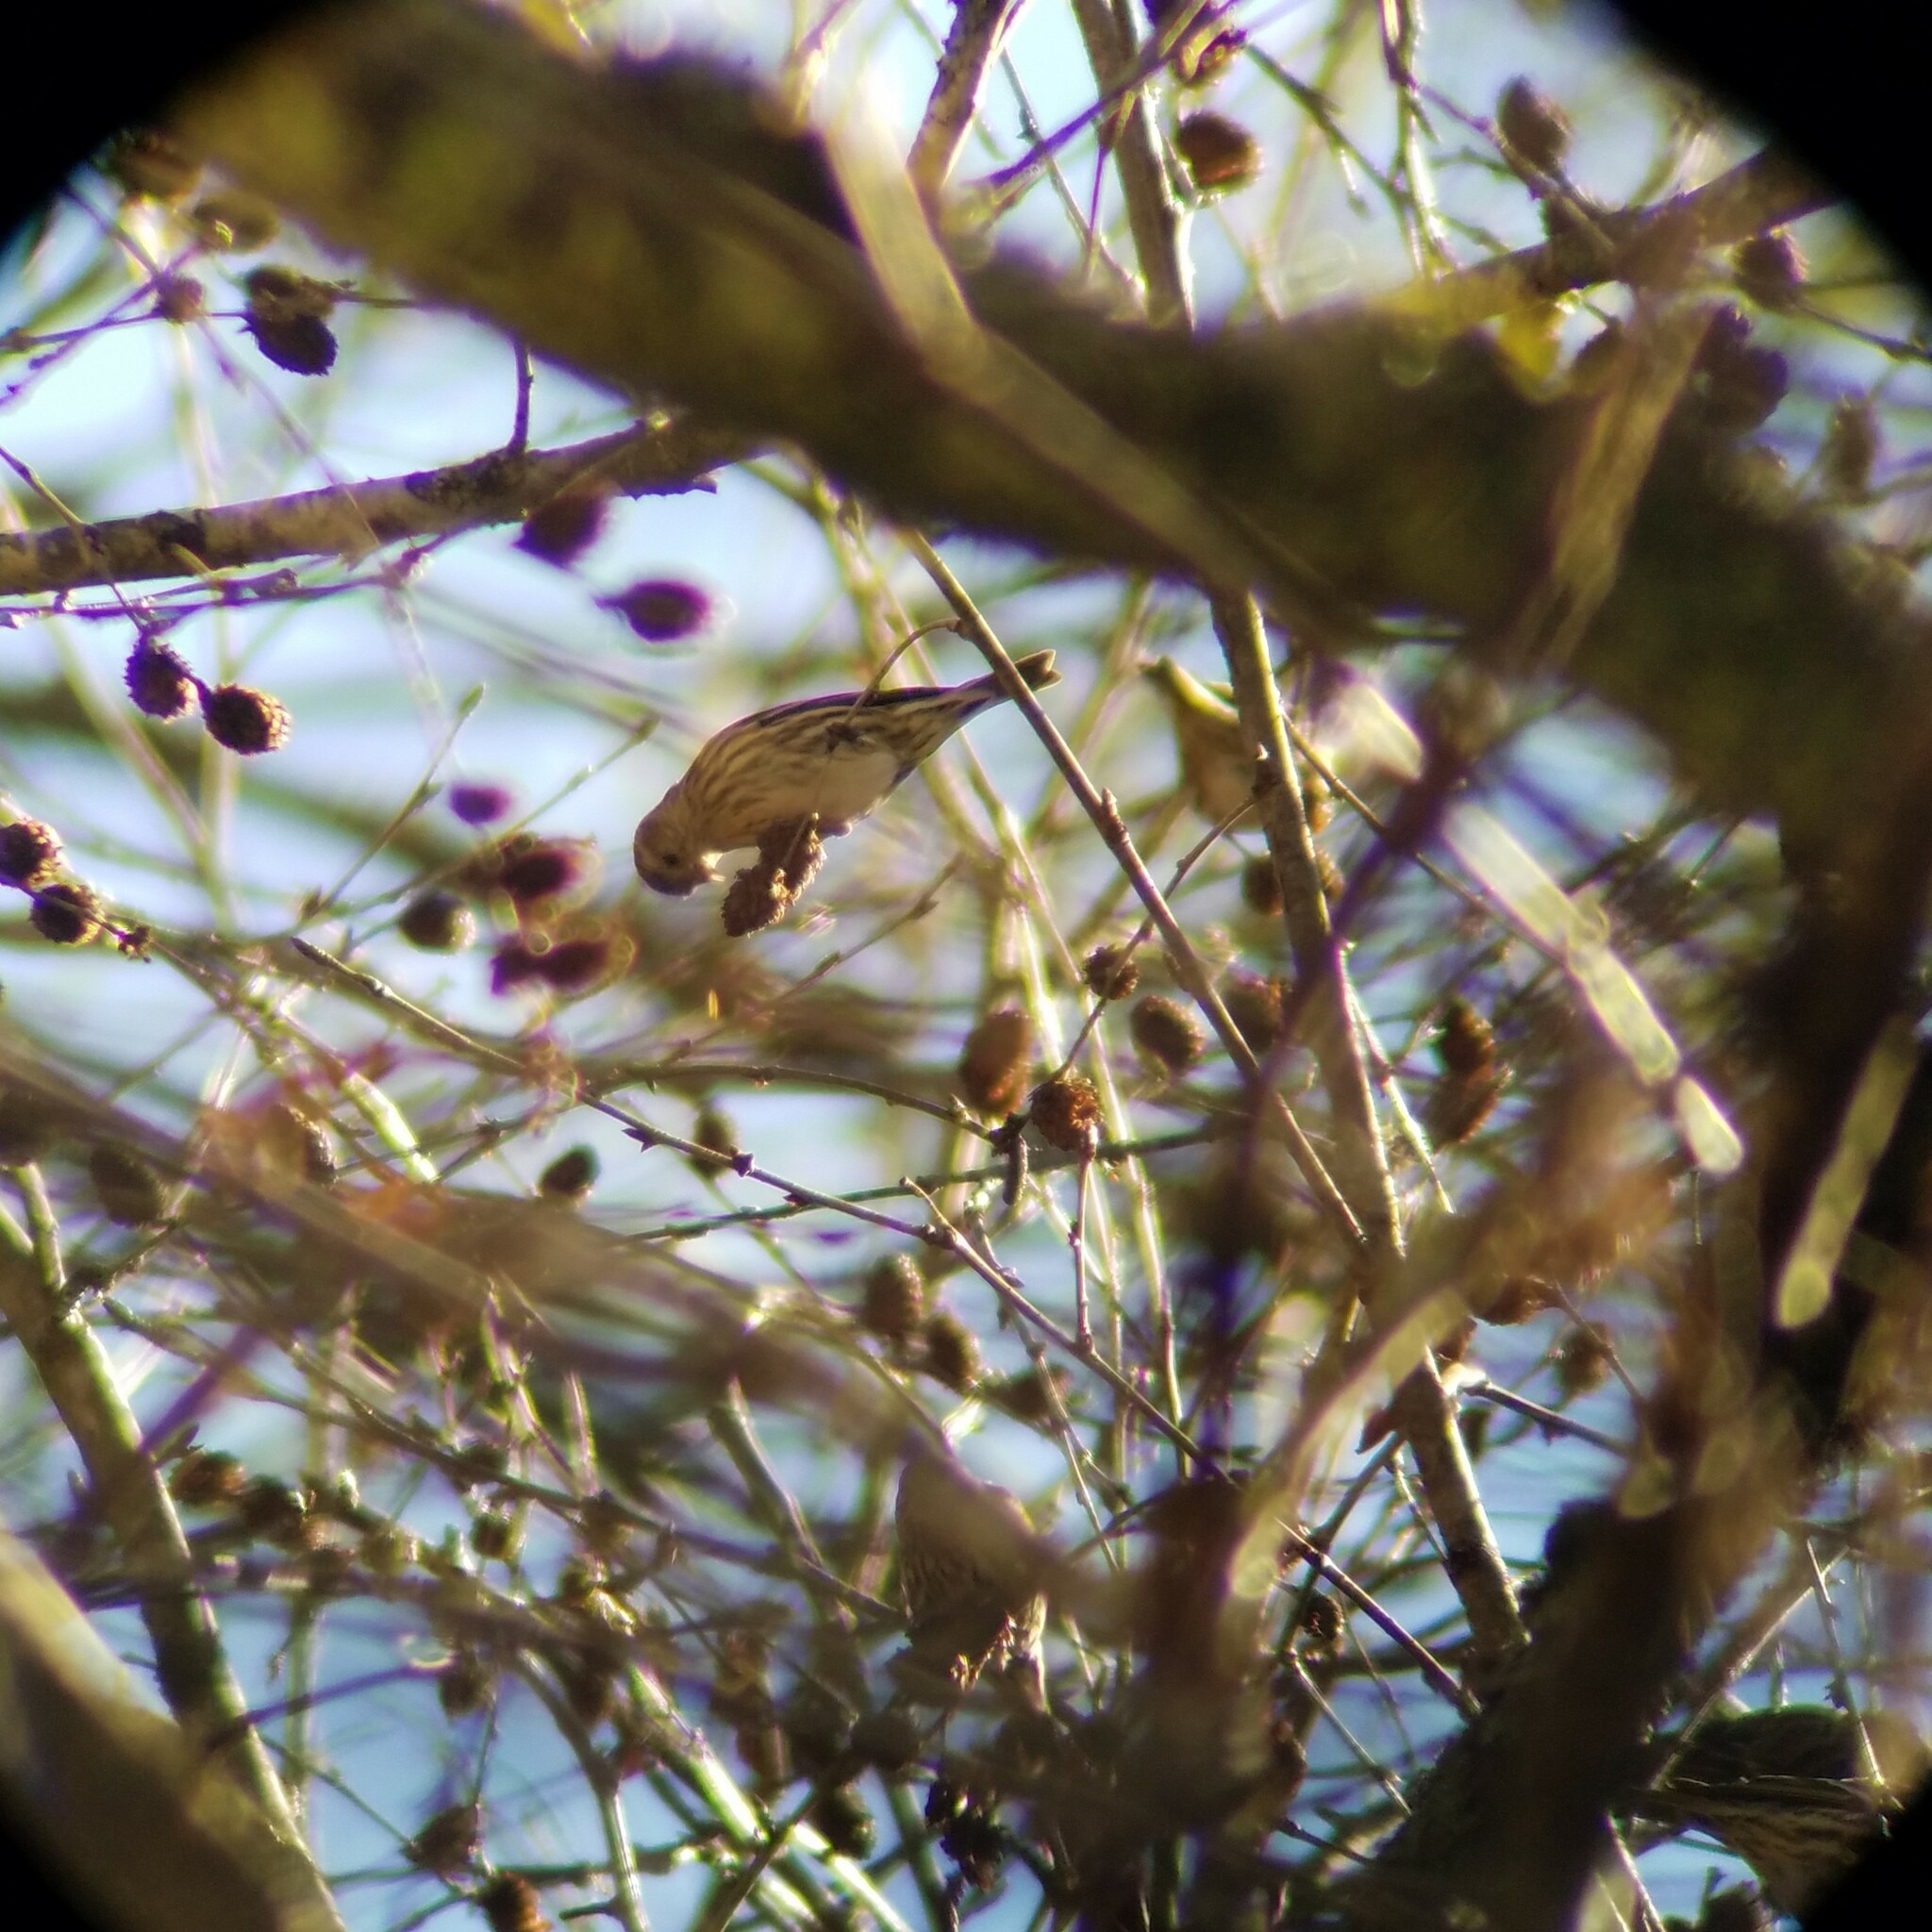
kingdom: Animalia
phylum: Chordata
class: Aves
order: Passeriformes
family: Fringillidae
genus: Spinus
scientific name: Spinus pinus
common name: Pine siskin
